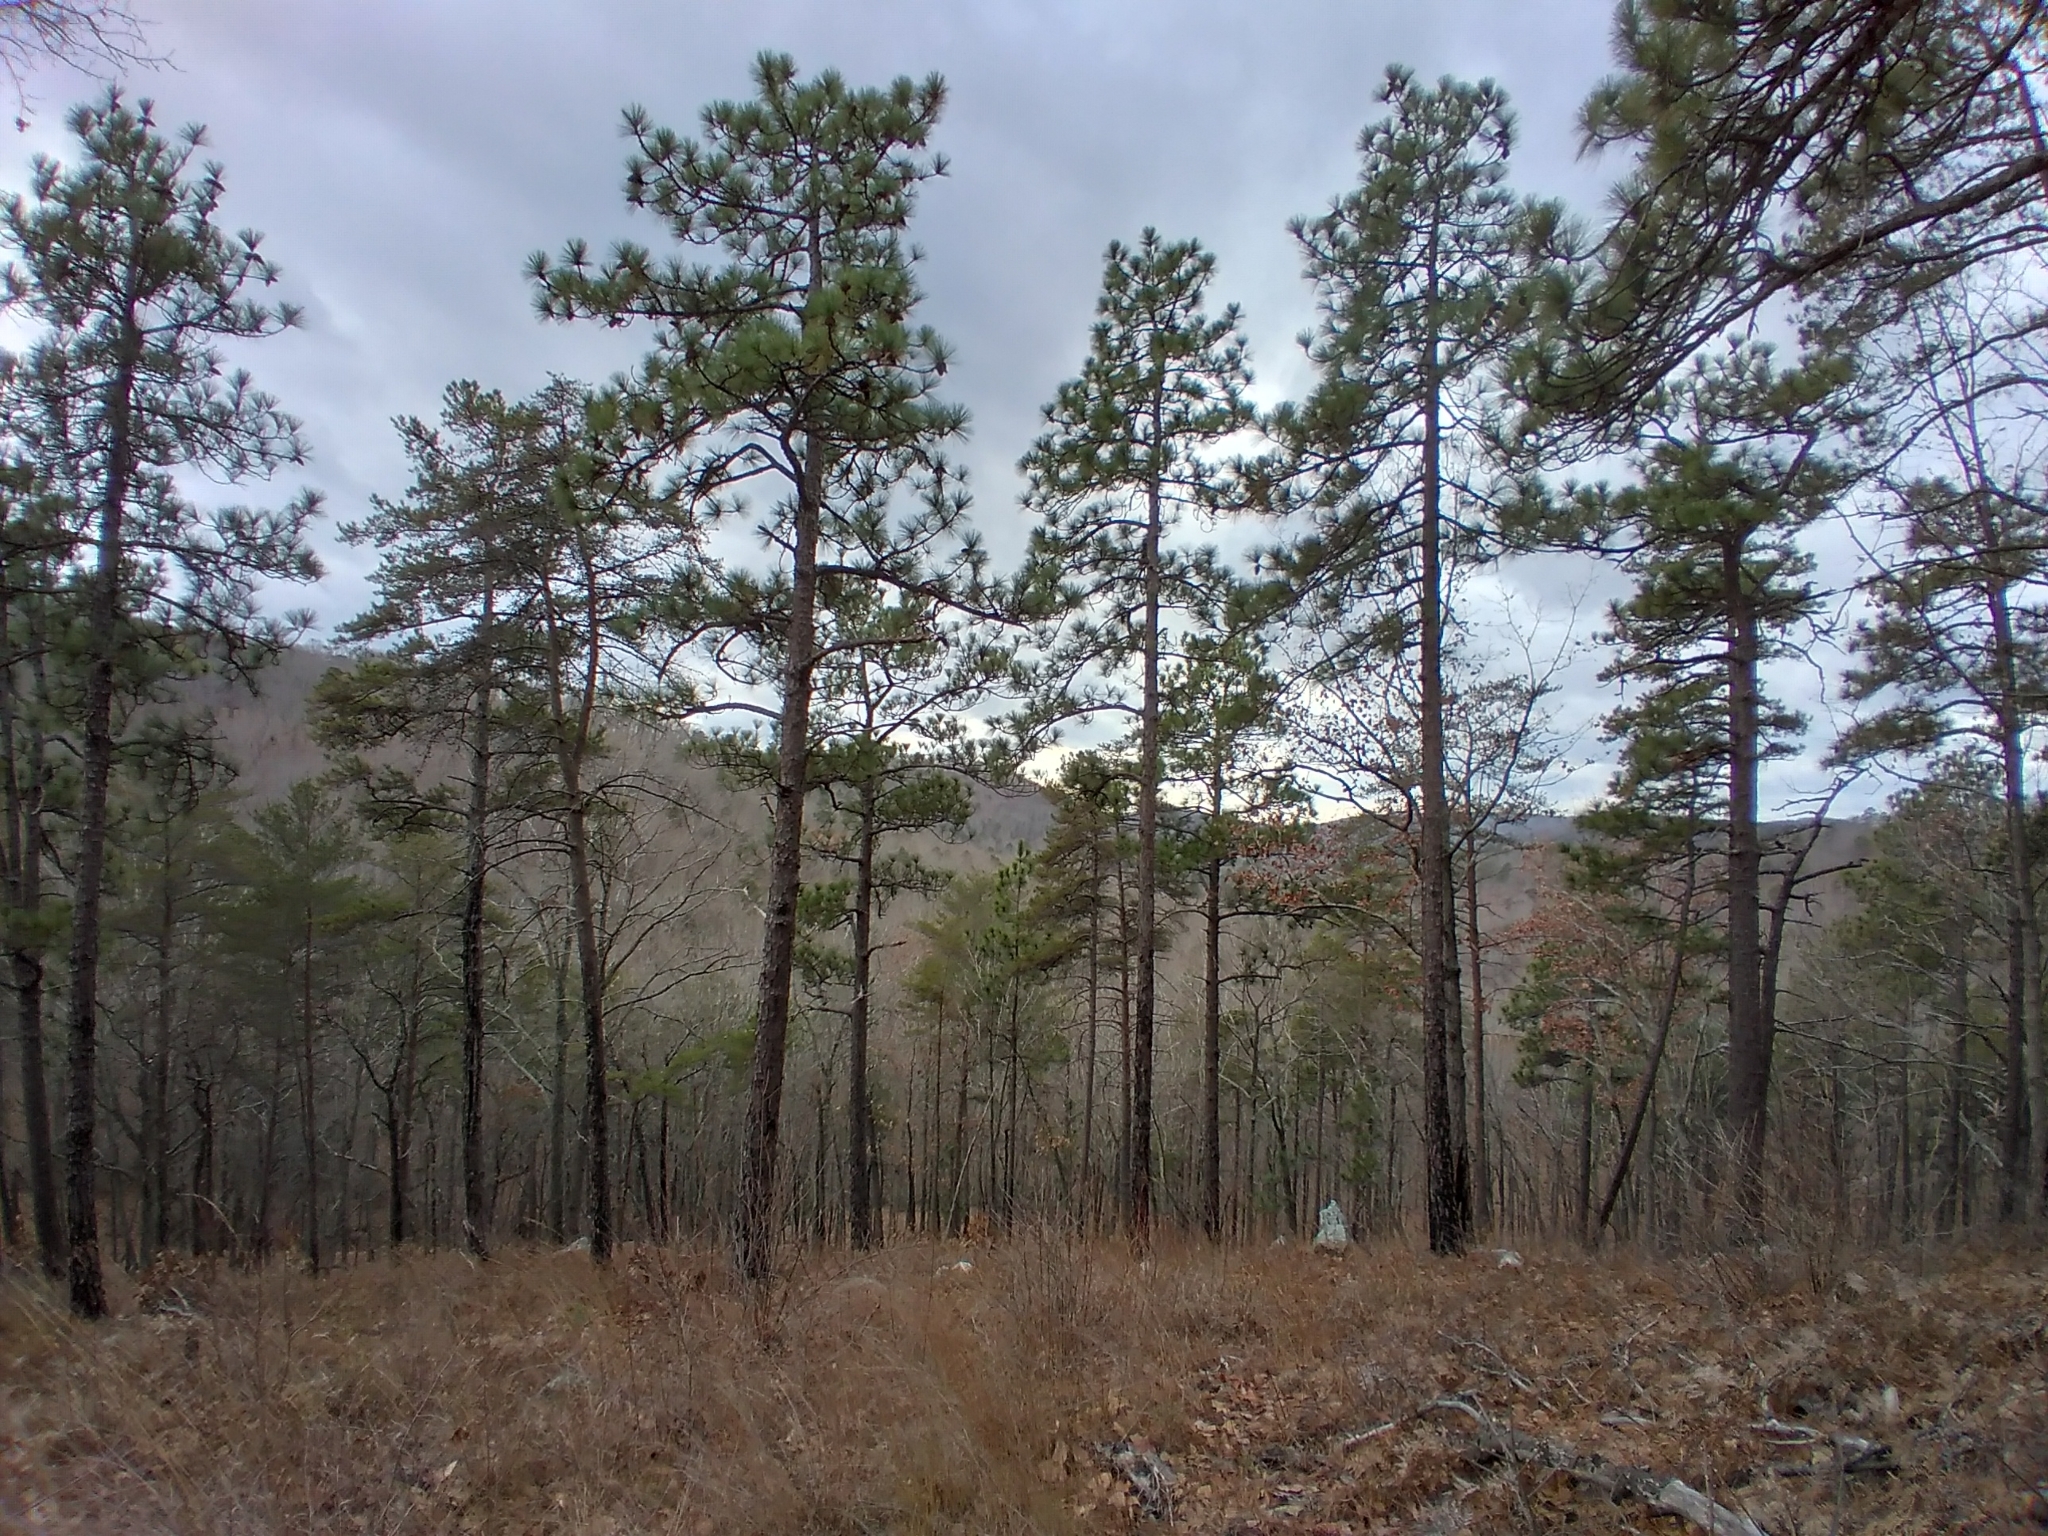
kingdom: Plantae
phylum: Tracheophyta
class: Pinopsida
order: Pinales
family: Pinaceae
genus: Pinus
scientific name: Pinus palustris
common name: Longleaf pine
